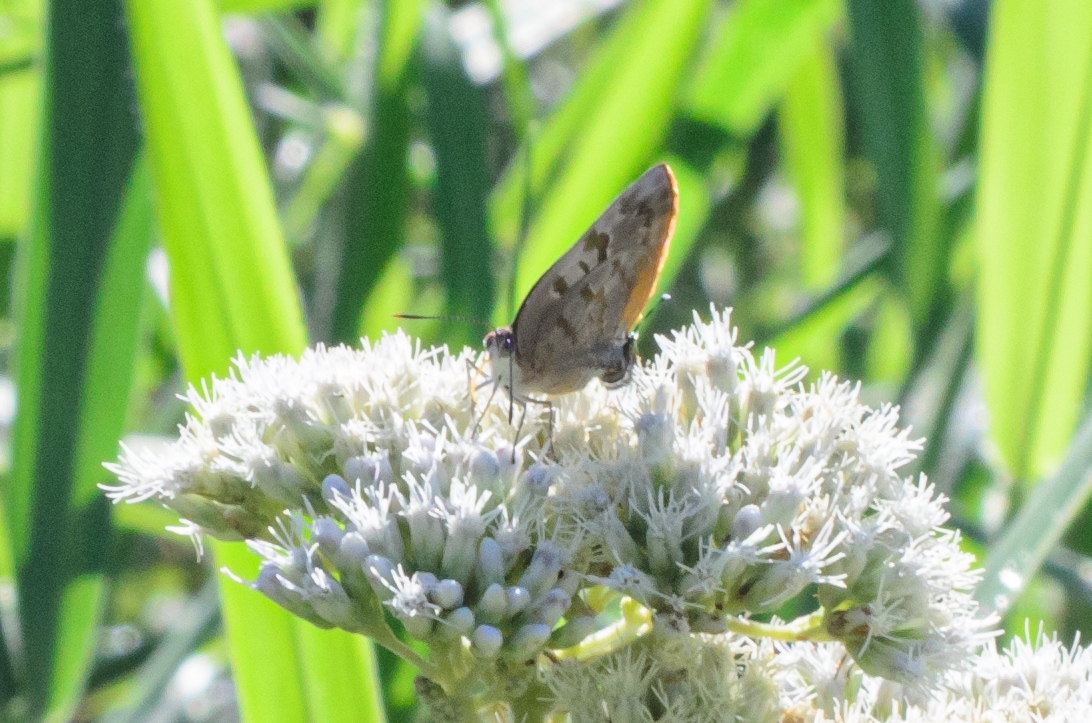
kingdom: Animalia
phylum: Arthropoda
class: Insecta
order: Lepidoptera
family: Lycaenidae
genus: Rekoa
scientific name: Rekoa palegon
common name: Gold-bordered hairstreak
